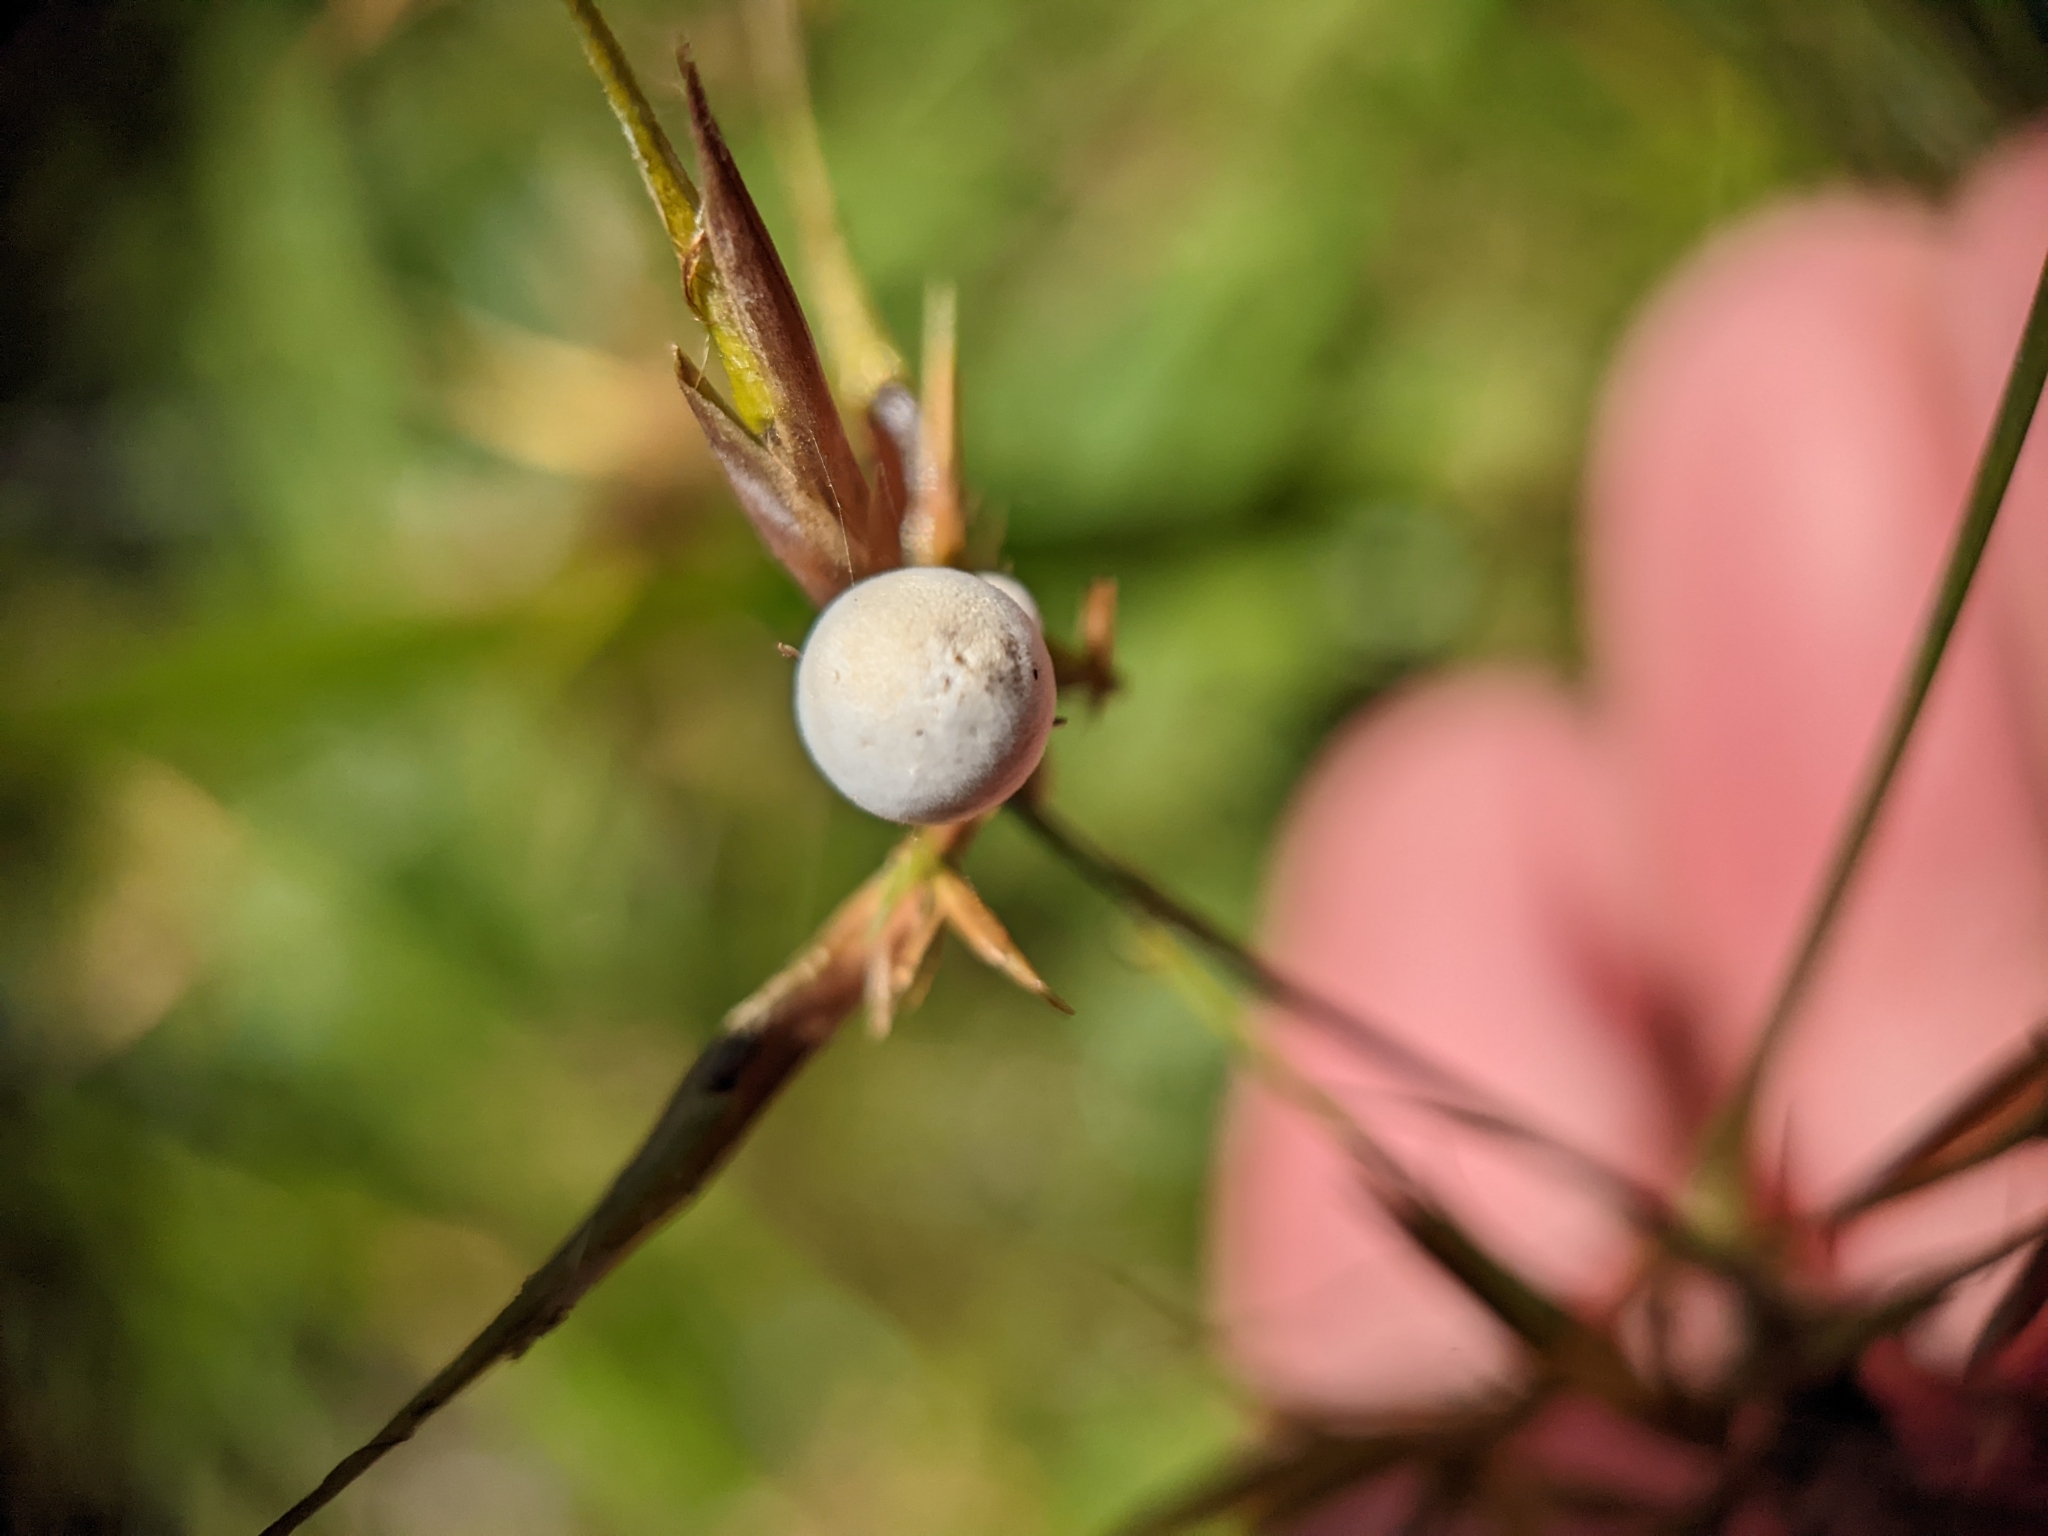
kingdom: Fungi
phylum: Basidiomycota
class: Ustilaginomycetes
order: Ustilaginales
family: Anthracoideaceae
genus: Testicularia
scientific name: Testicularia cyperi
